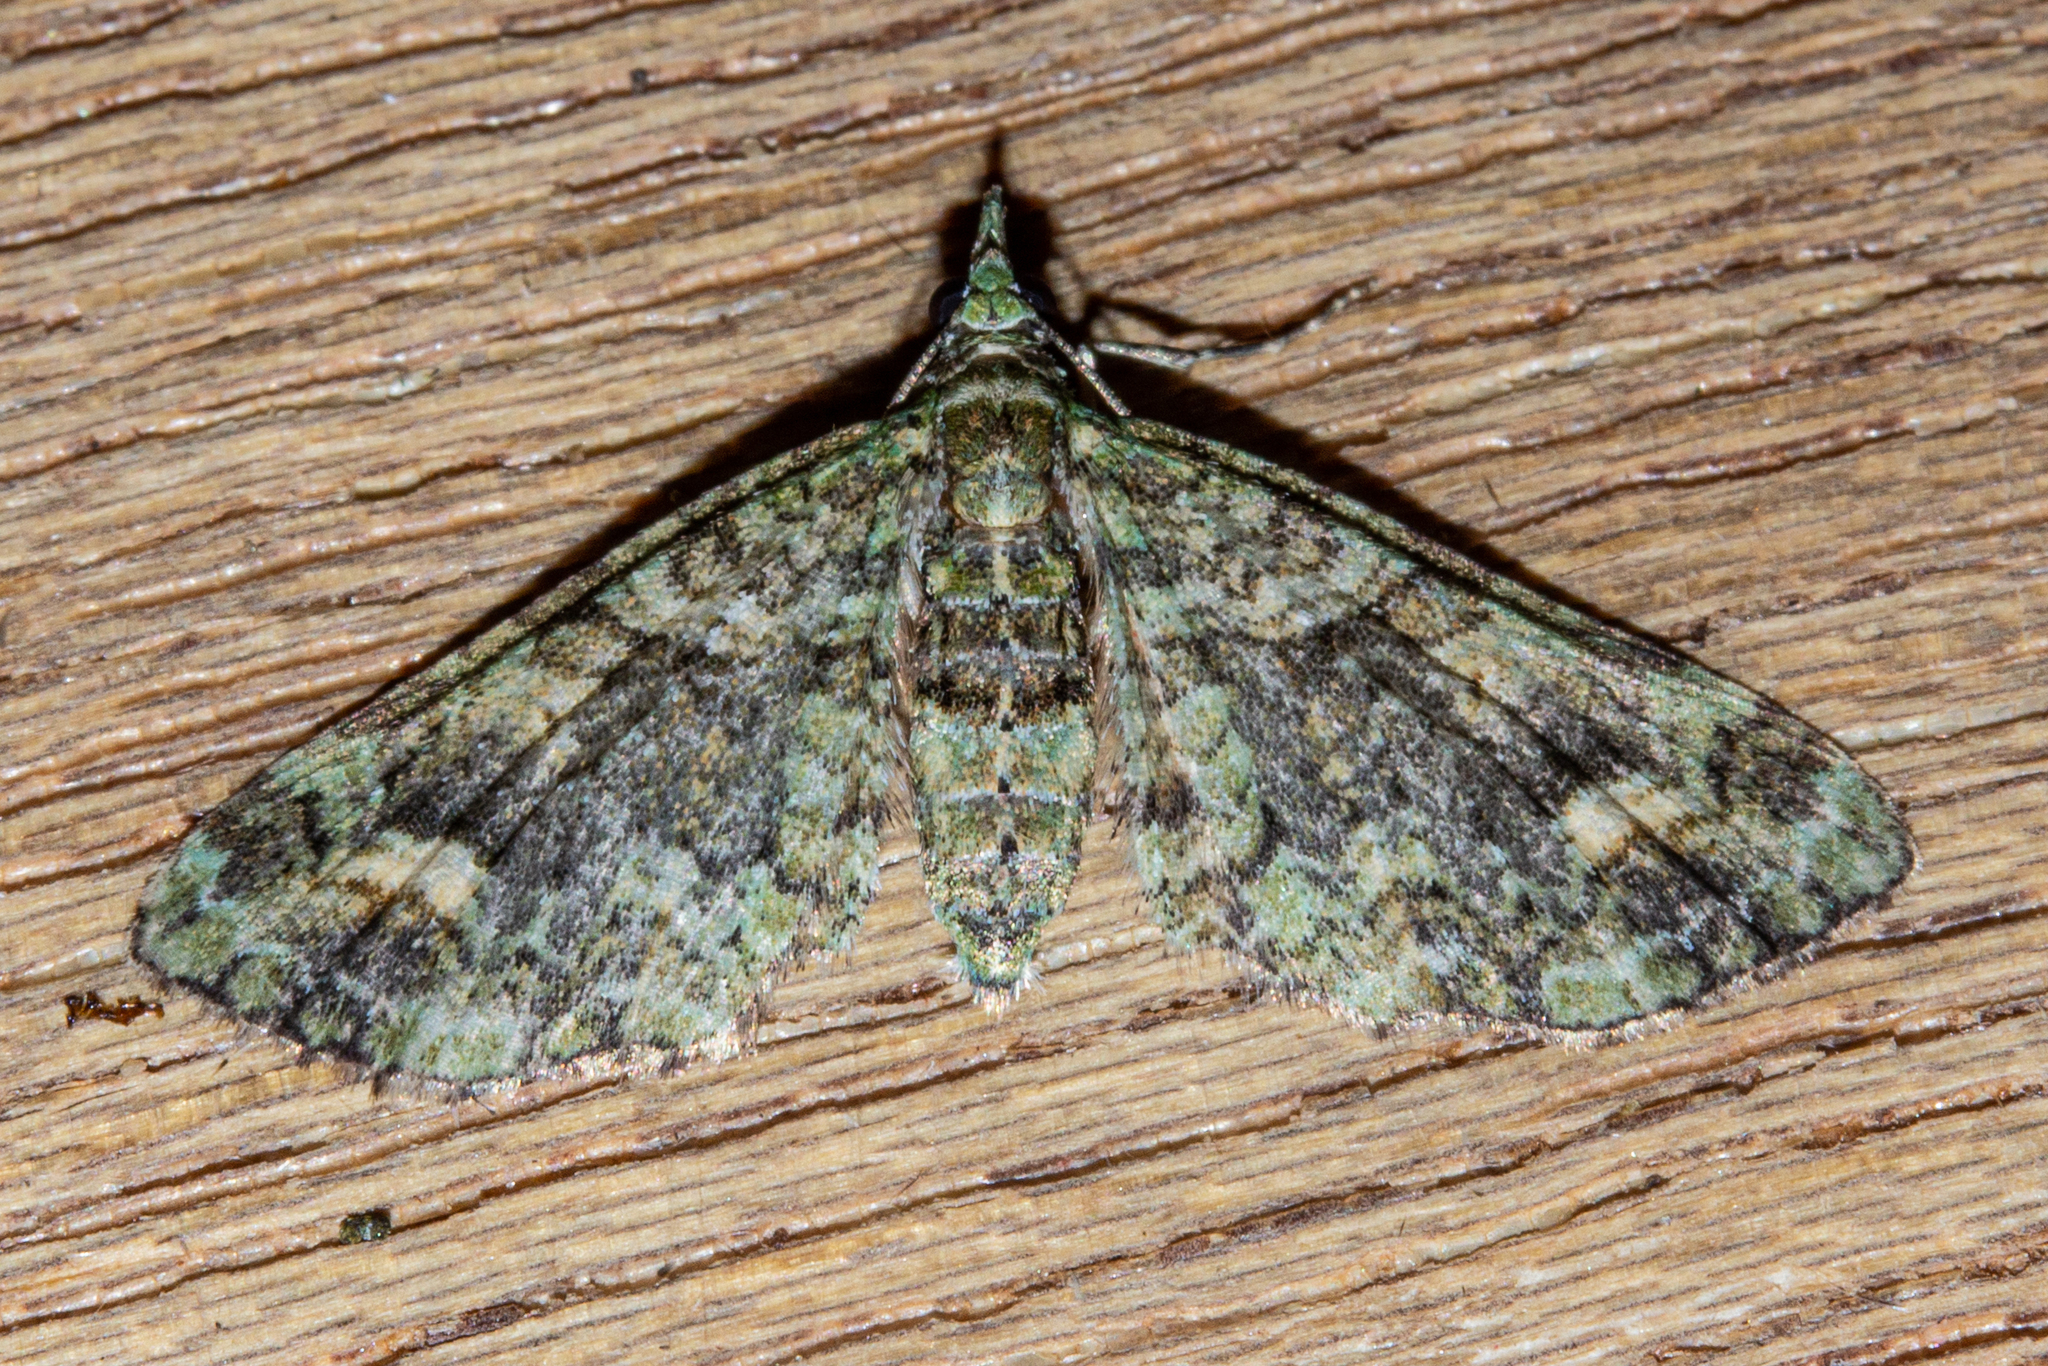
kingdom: Animalia
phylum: Arthropoda
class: Insecta
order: Lepidoptera
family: Geometridae
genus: Idaea
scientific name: Idaea mutanda
